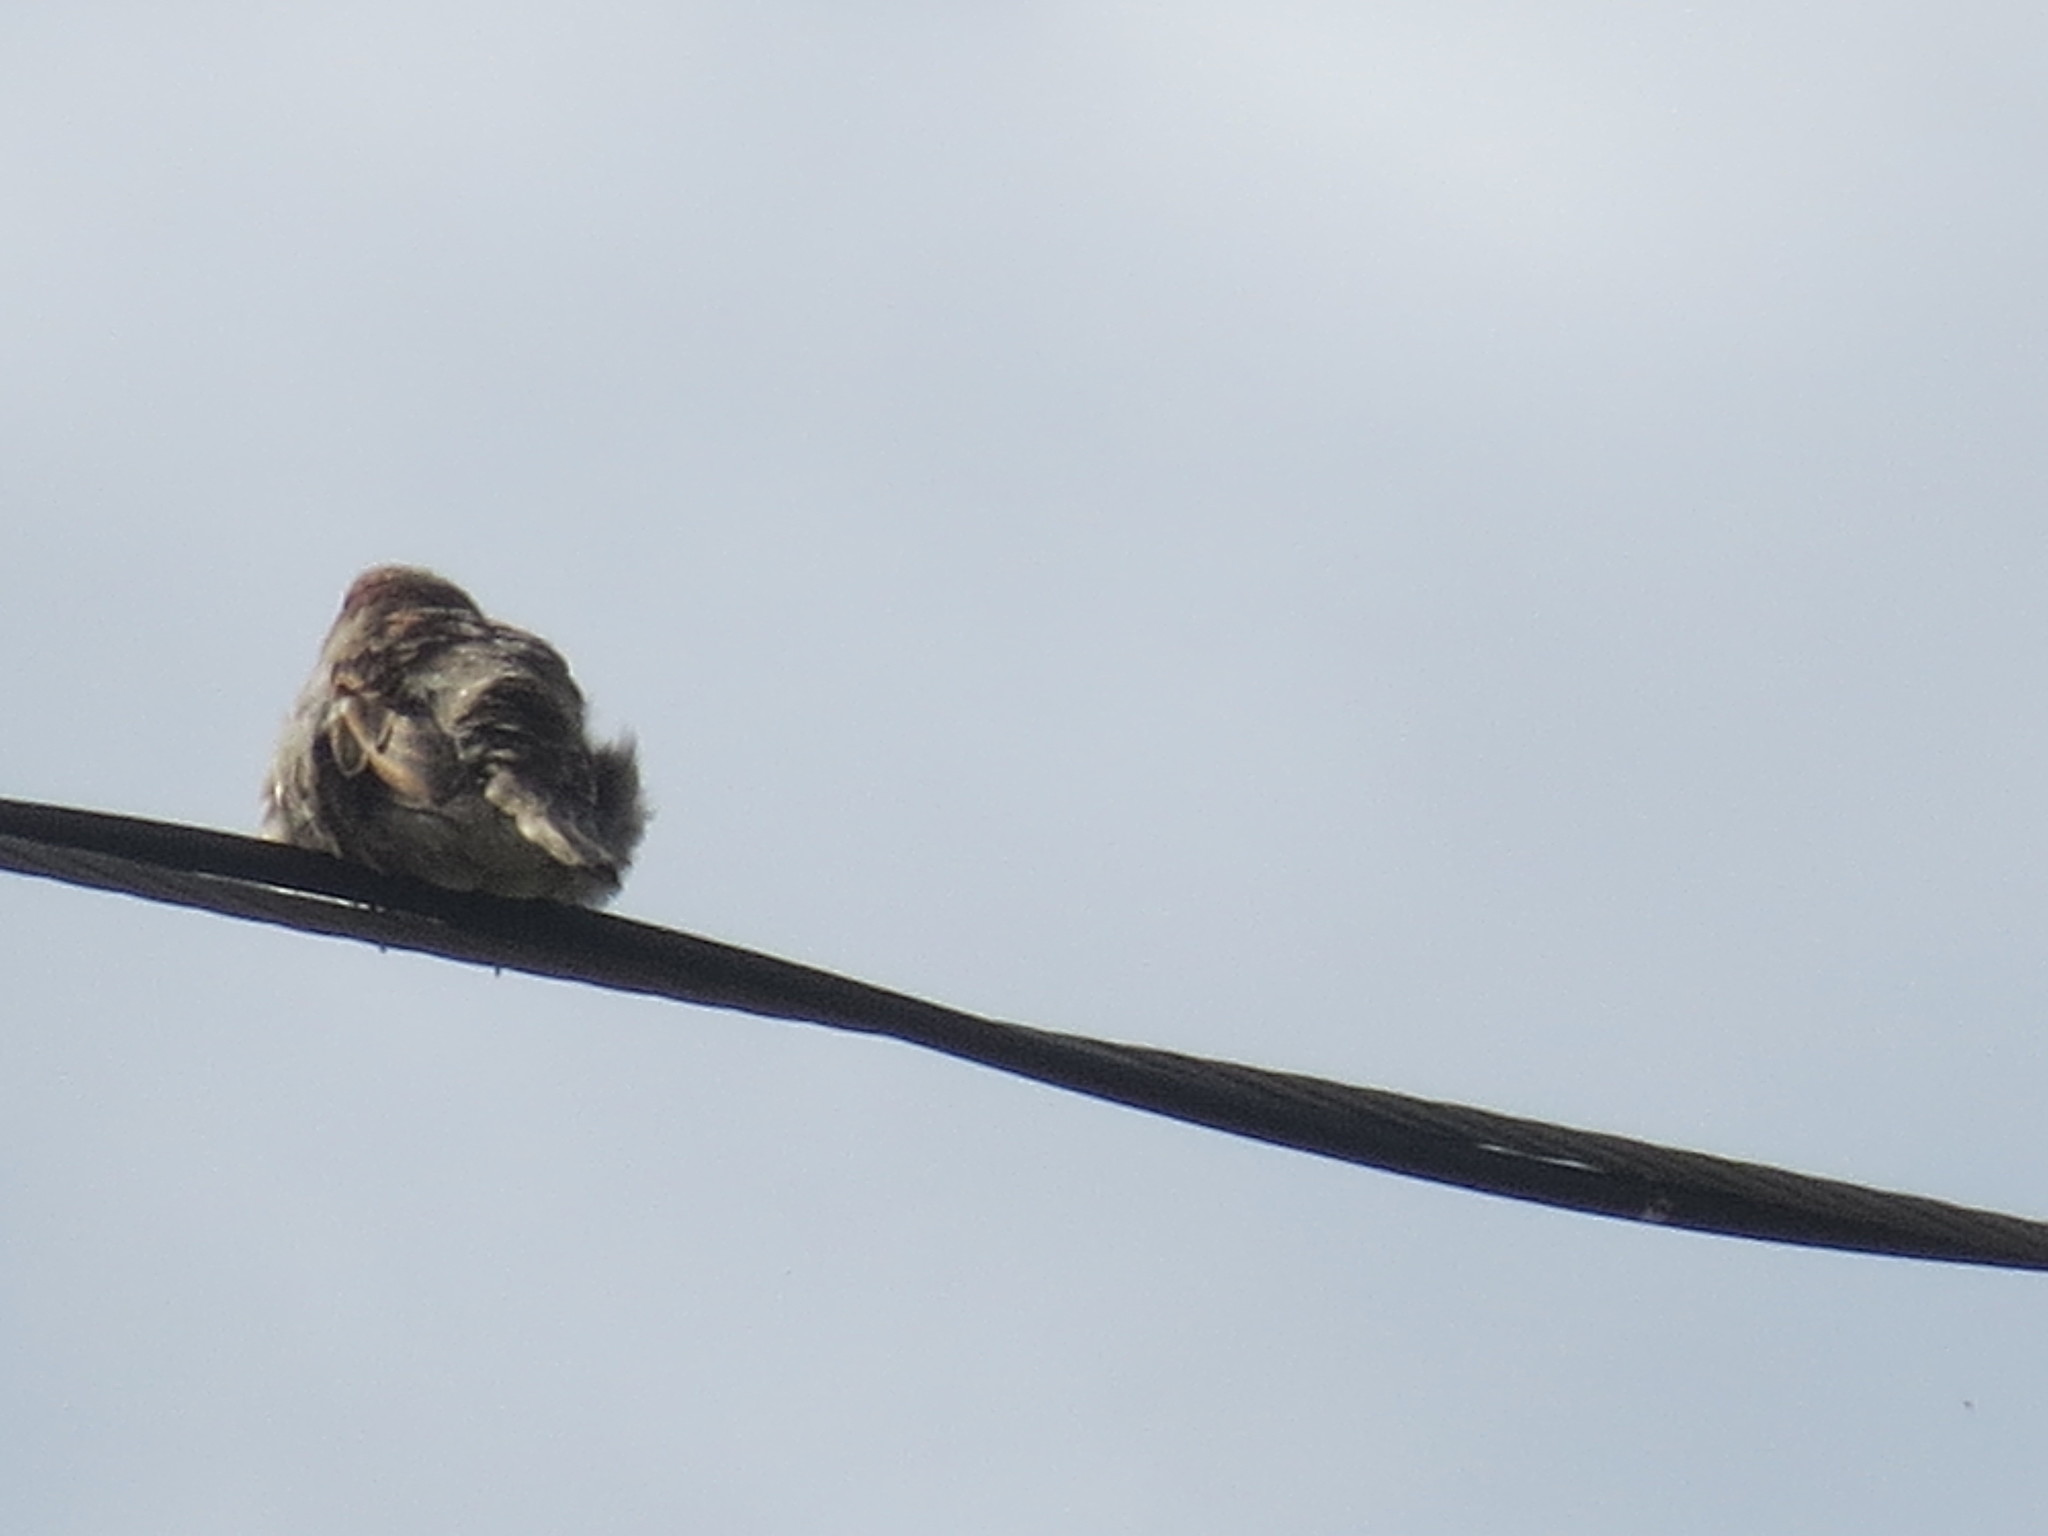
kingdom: Animalia
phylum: Chordata
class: Aves
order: Passeriformes
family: Passeridae
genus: Passer
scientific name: Passer domesticus
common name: House sparrow
